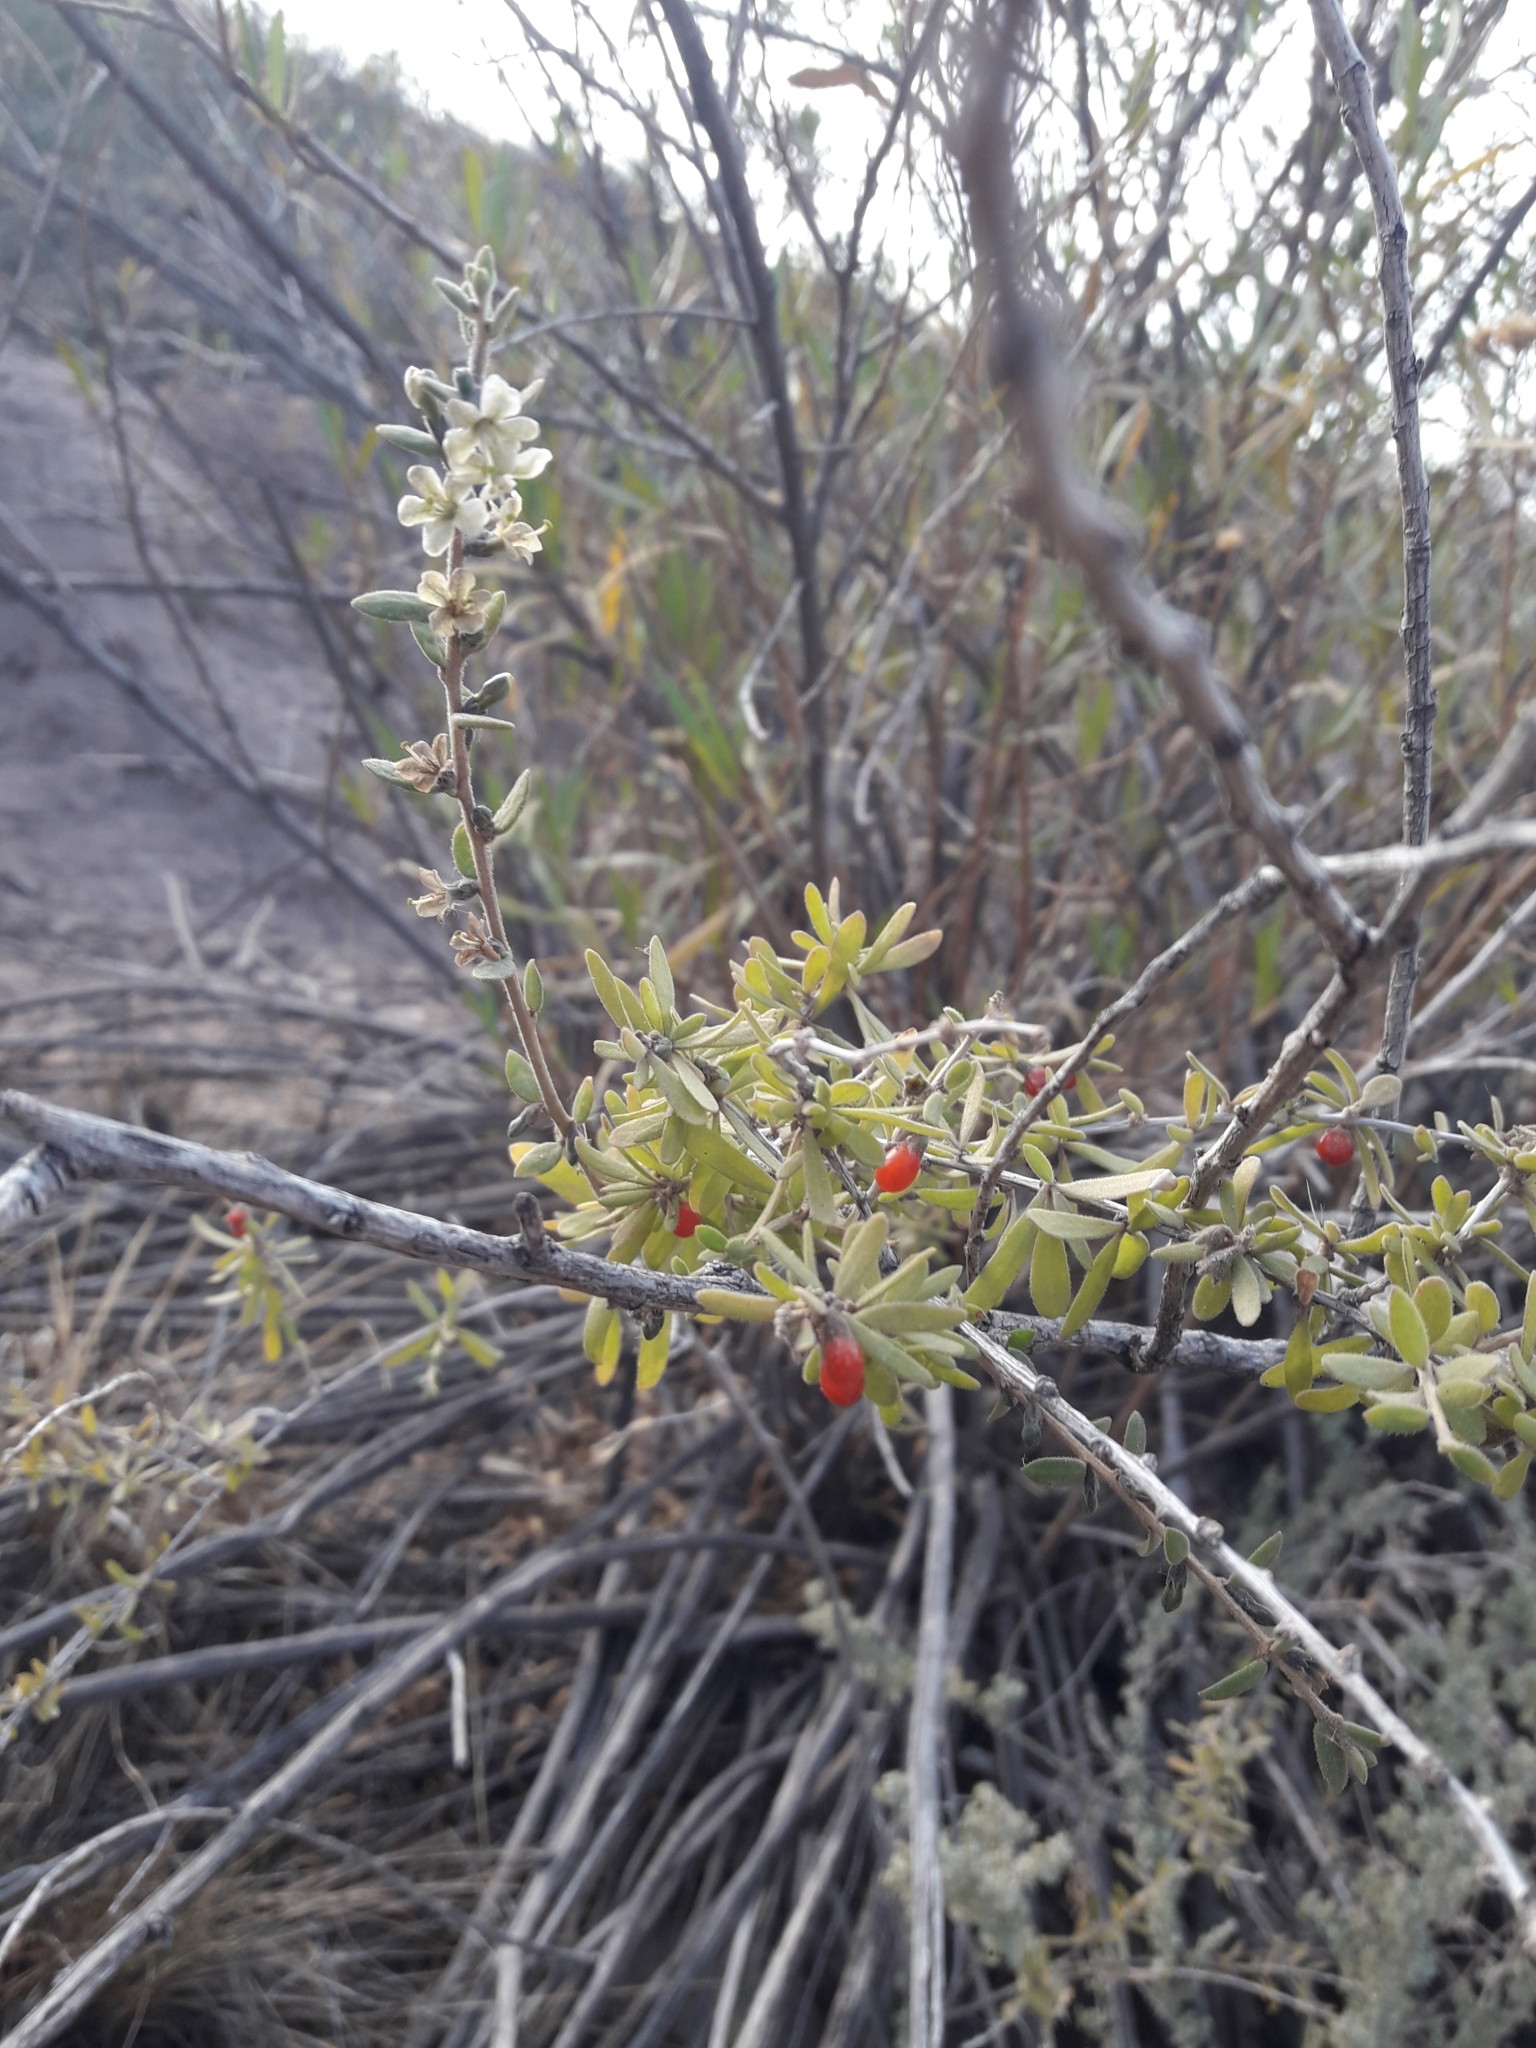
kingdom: Plantae
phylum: Tracheophyta
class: Magnoliopsida
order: Solanales
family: Solanaceae
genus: Lycium
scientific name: Lycium chilense
